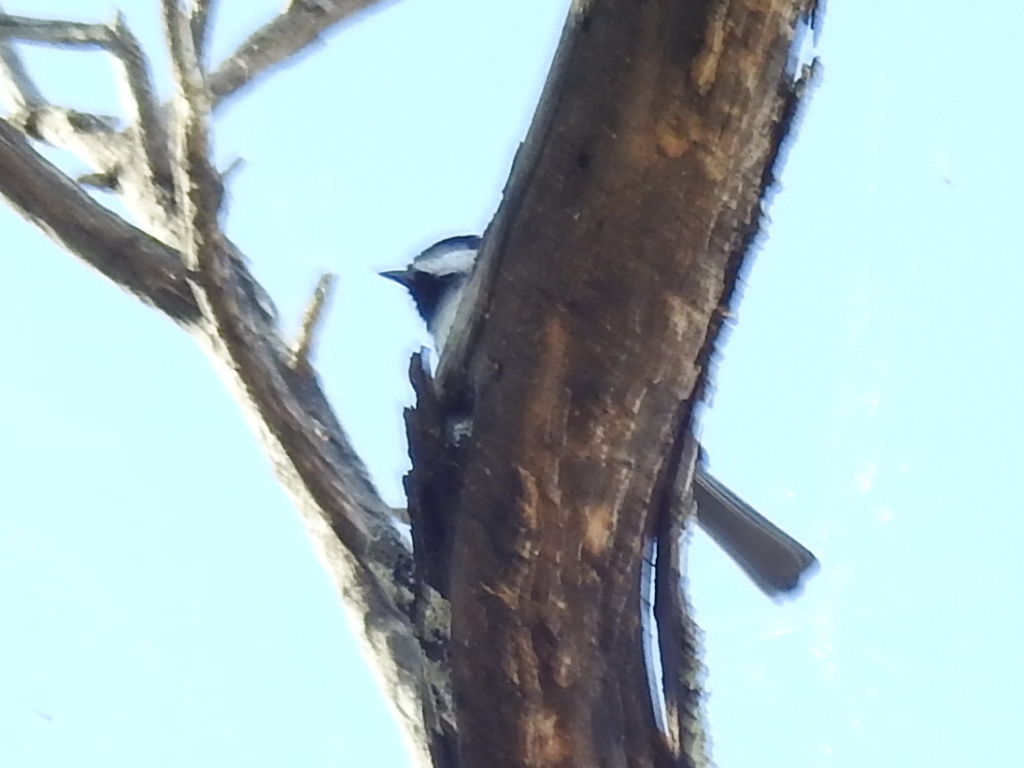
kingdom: Animalia
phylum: Chordata
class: Aves
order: Passeriformes
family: Paridae
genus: Poecile
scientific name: Poecile carolinensis
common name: Carolina chickadee
